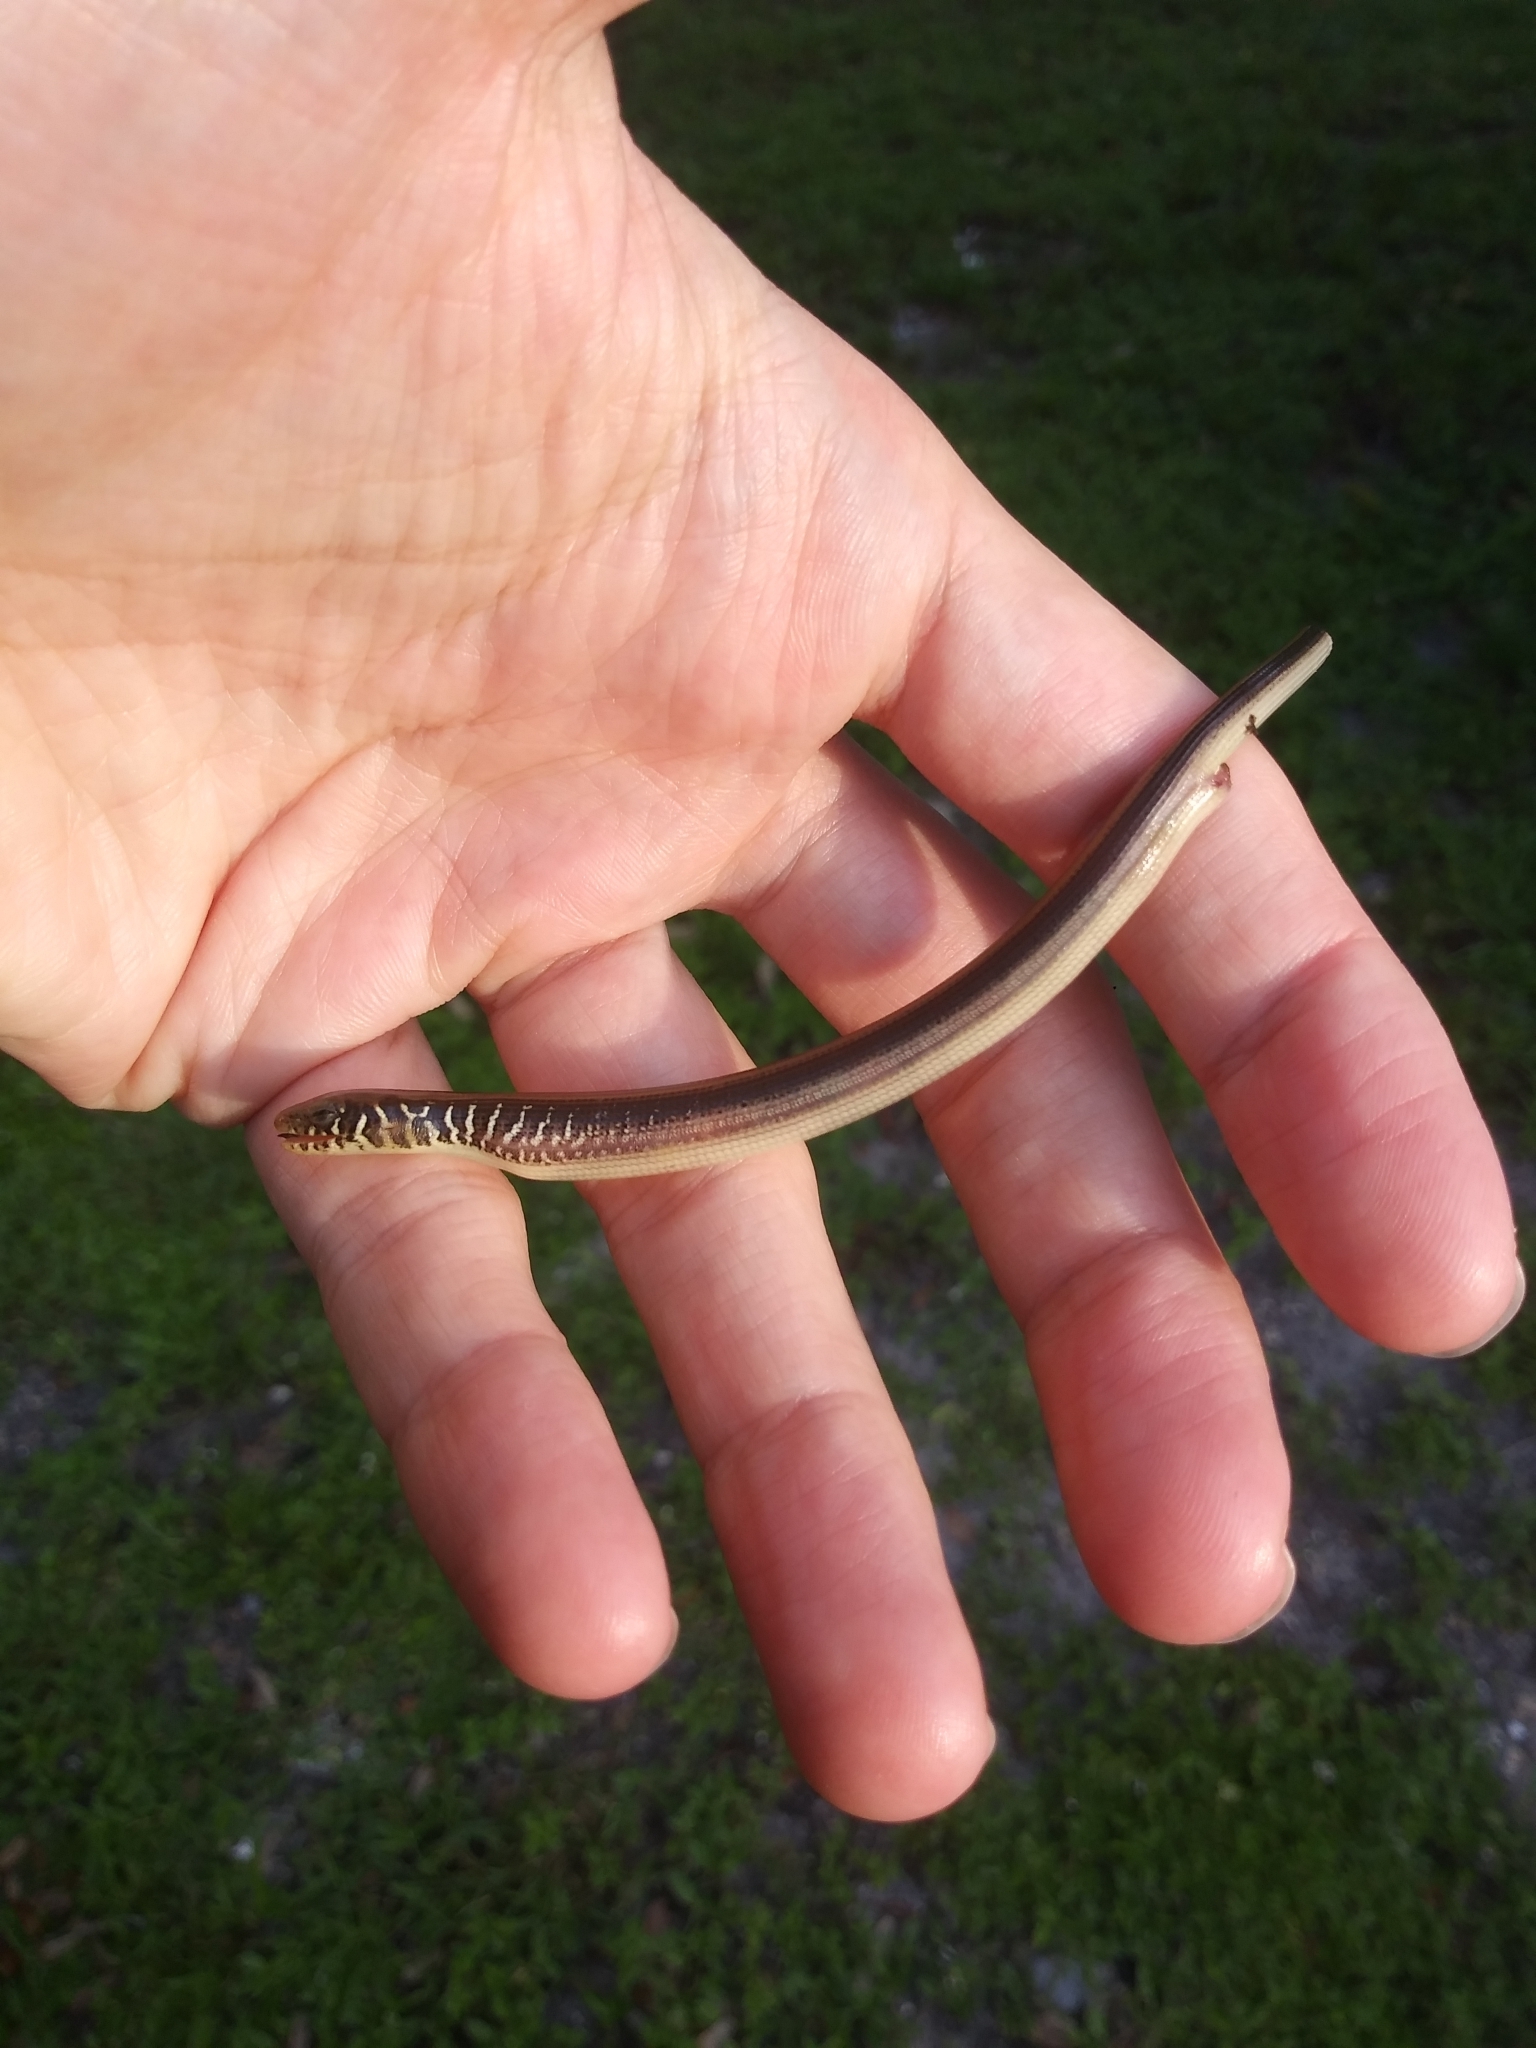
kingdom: Animalia
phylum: Chordata
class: Squamata
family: Anguidae
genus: Ophisaurus
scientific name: Ophisaurus ventralis
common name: Eastern glass lizard
